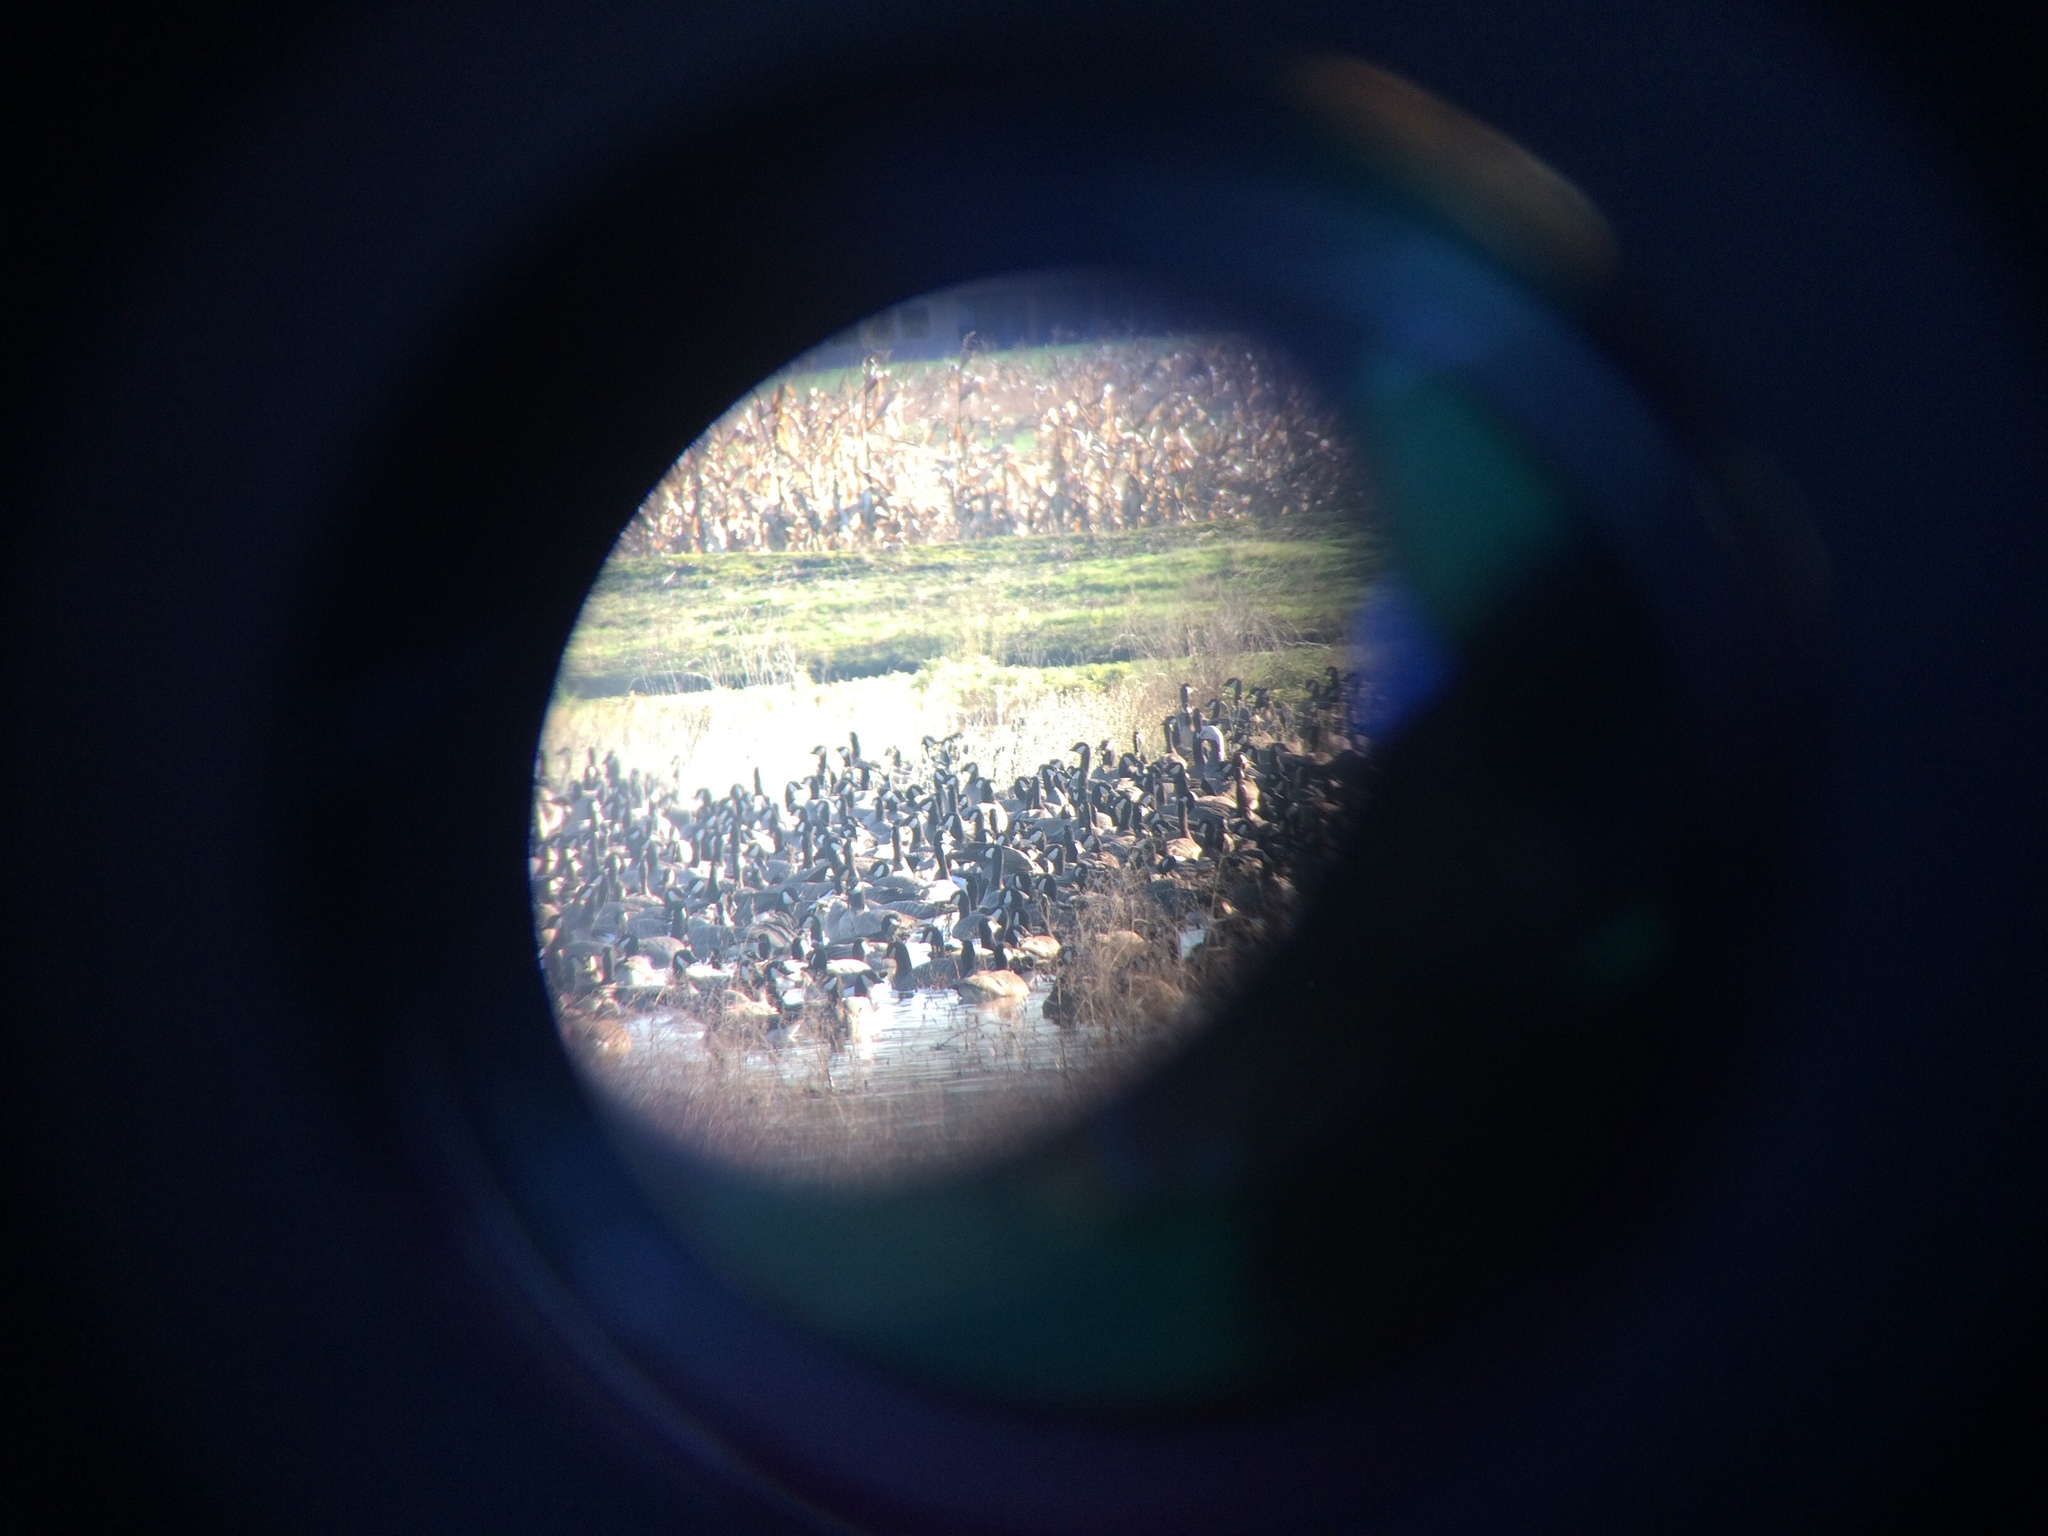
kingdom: Animalia
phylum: Chordata
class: Aves
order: Anseriformes
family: Anatidae
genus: Anser
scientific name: Anser canagicus
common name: Emperor goose
